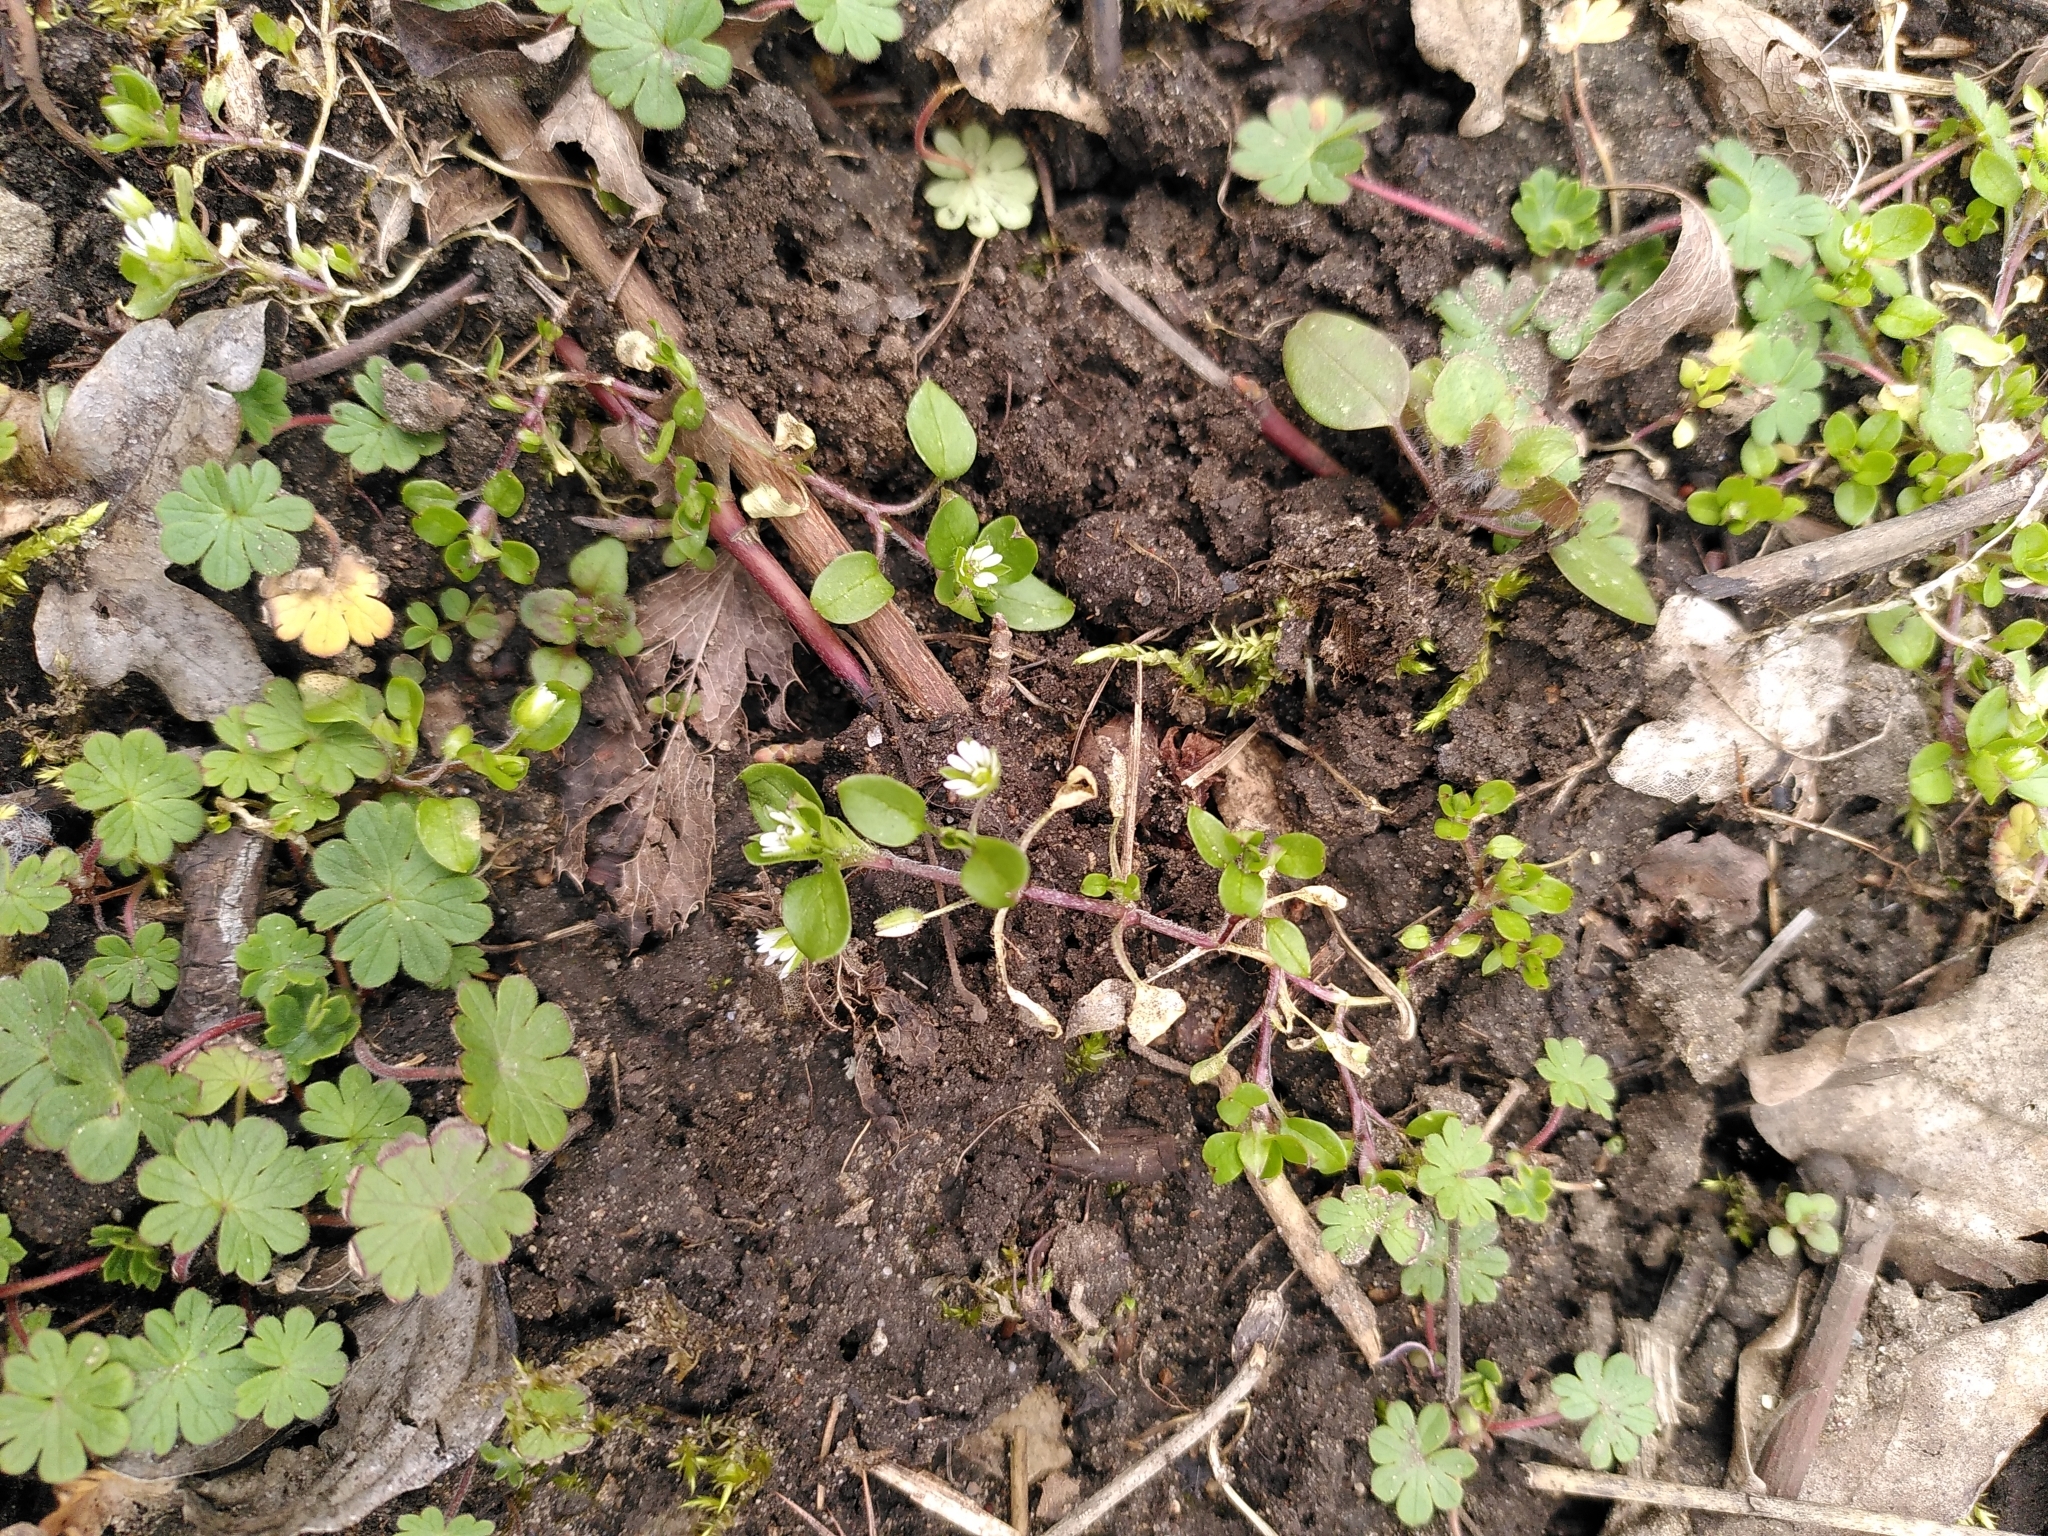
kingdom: Plantae
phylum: Tracheophyta
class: Magnoliopsida
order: Caryophyllales
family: Caryophyllaceae
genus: Stellaria
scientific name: Stellaria media
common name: Common chickweed
